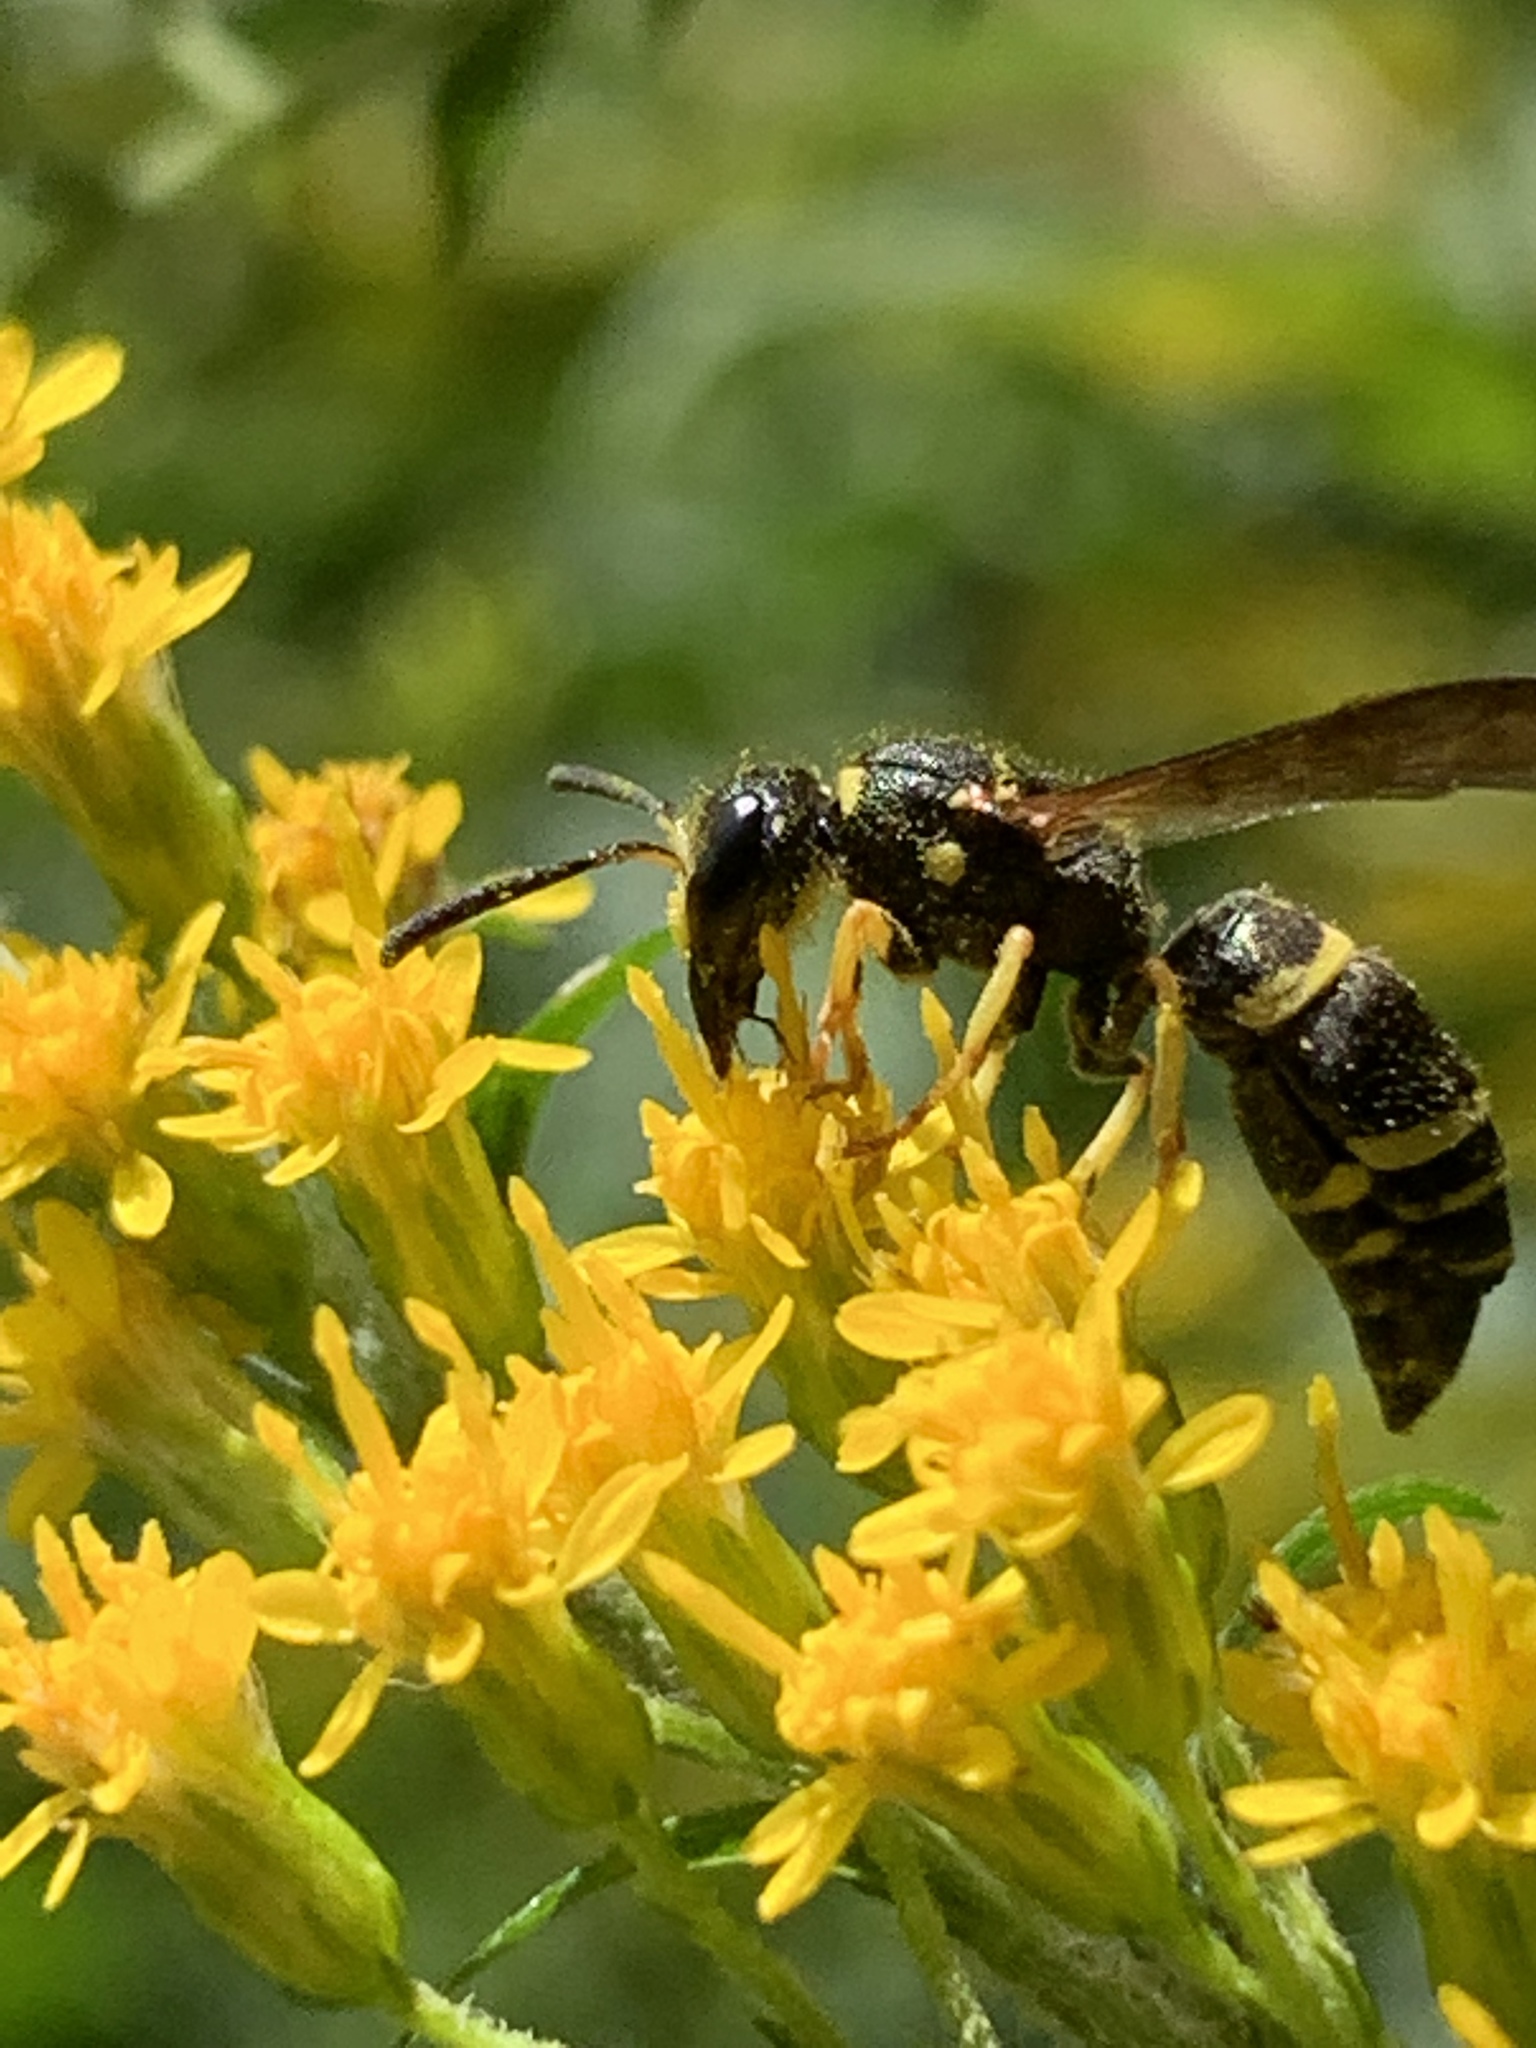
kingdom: Animalia
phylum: Arthropoda
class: Insecta
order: Hymenoptera
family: Vespidae
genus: Ancistrocerus
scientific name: Ancistrocerus
